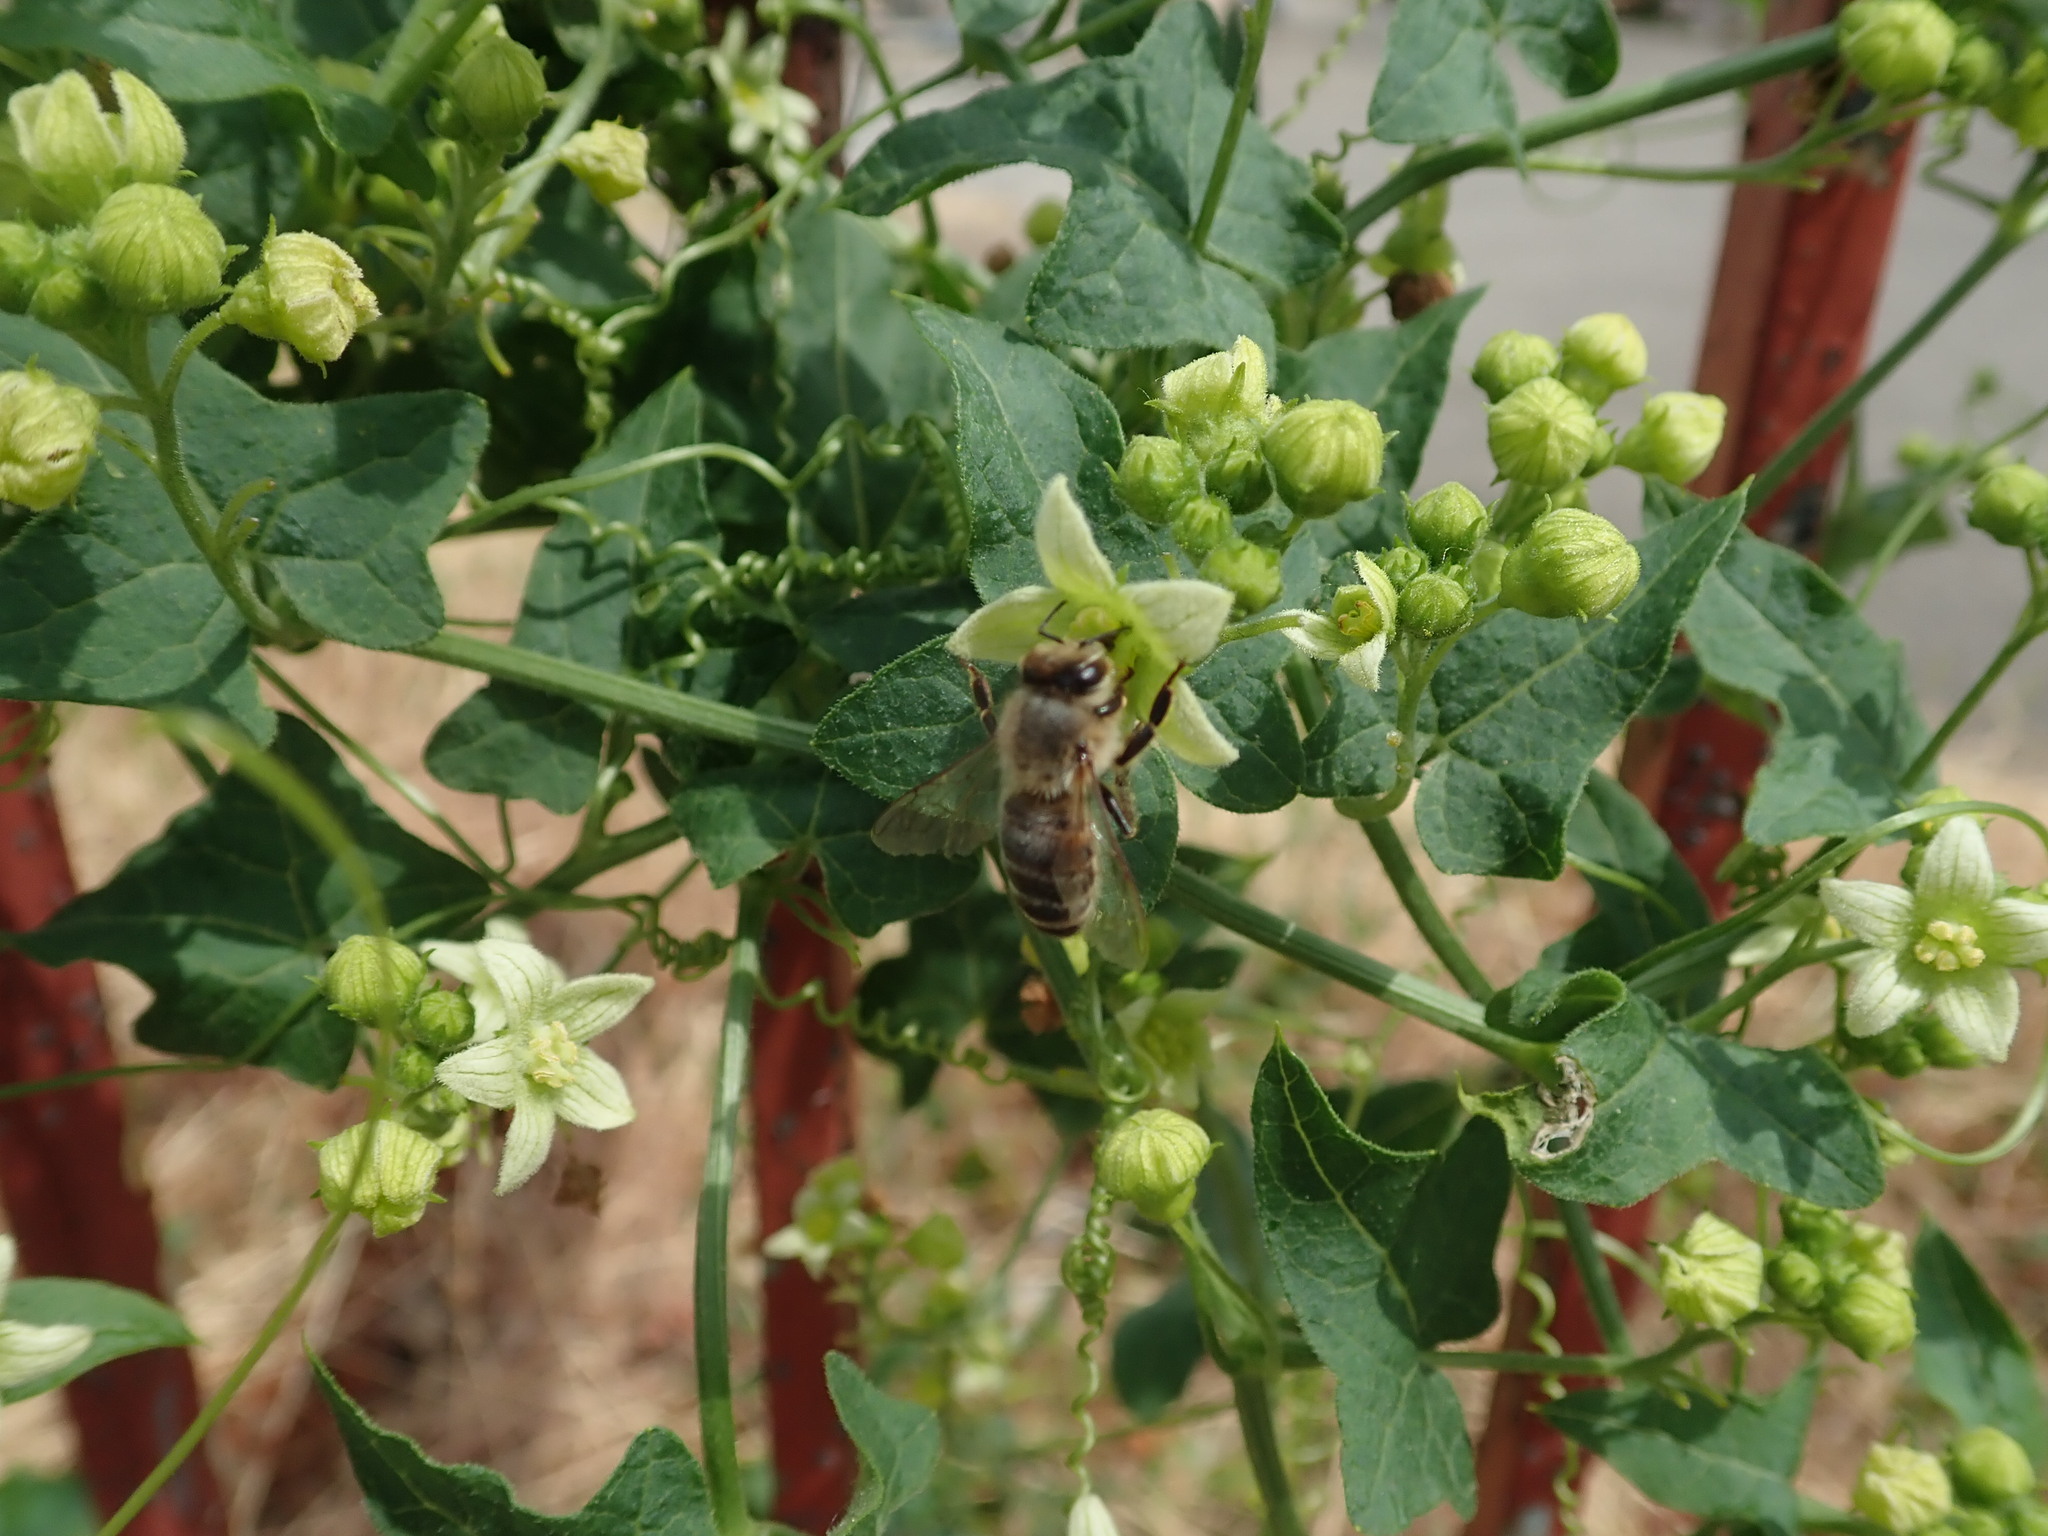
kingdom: Animalia
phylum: Arthropoda
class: Insecta
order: Hymenoptera
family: Apidae
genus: Apis
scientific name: Apis mellifera
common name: Honey bee
